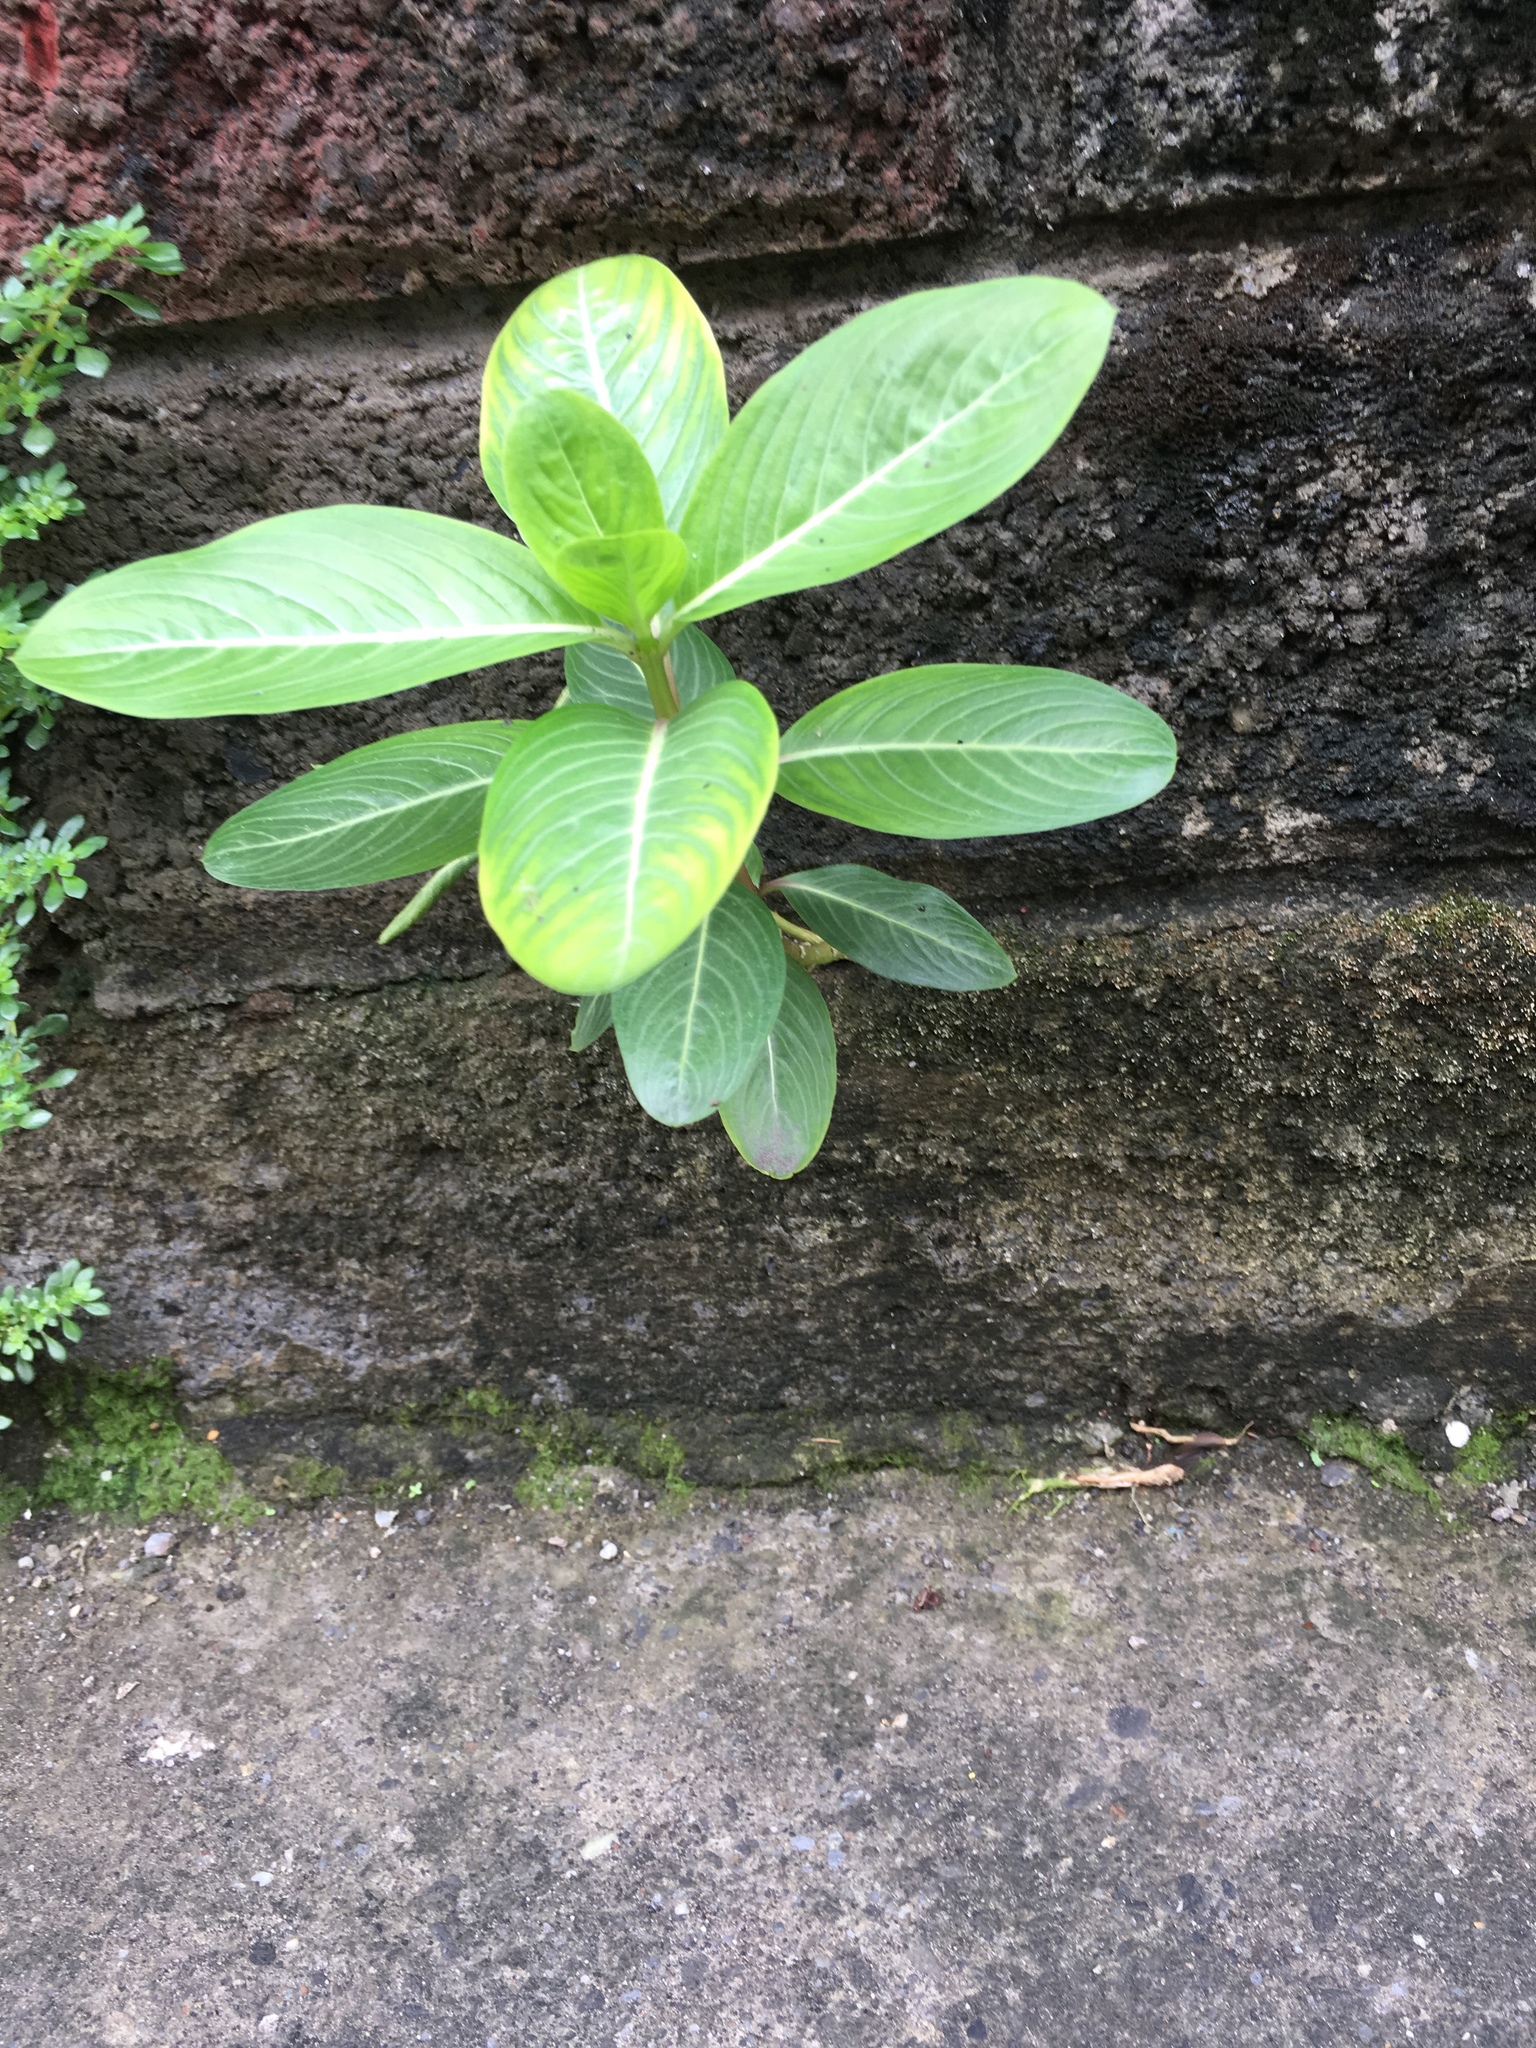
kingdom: Plantae
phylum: Tracheophyta
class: Magnoliopsida
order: Gentianales
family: Apocynaceae
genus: Catharanthus
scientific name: Catharanthus roseus
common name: Madagascar periwinkle
